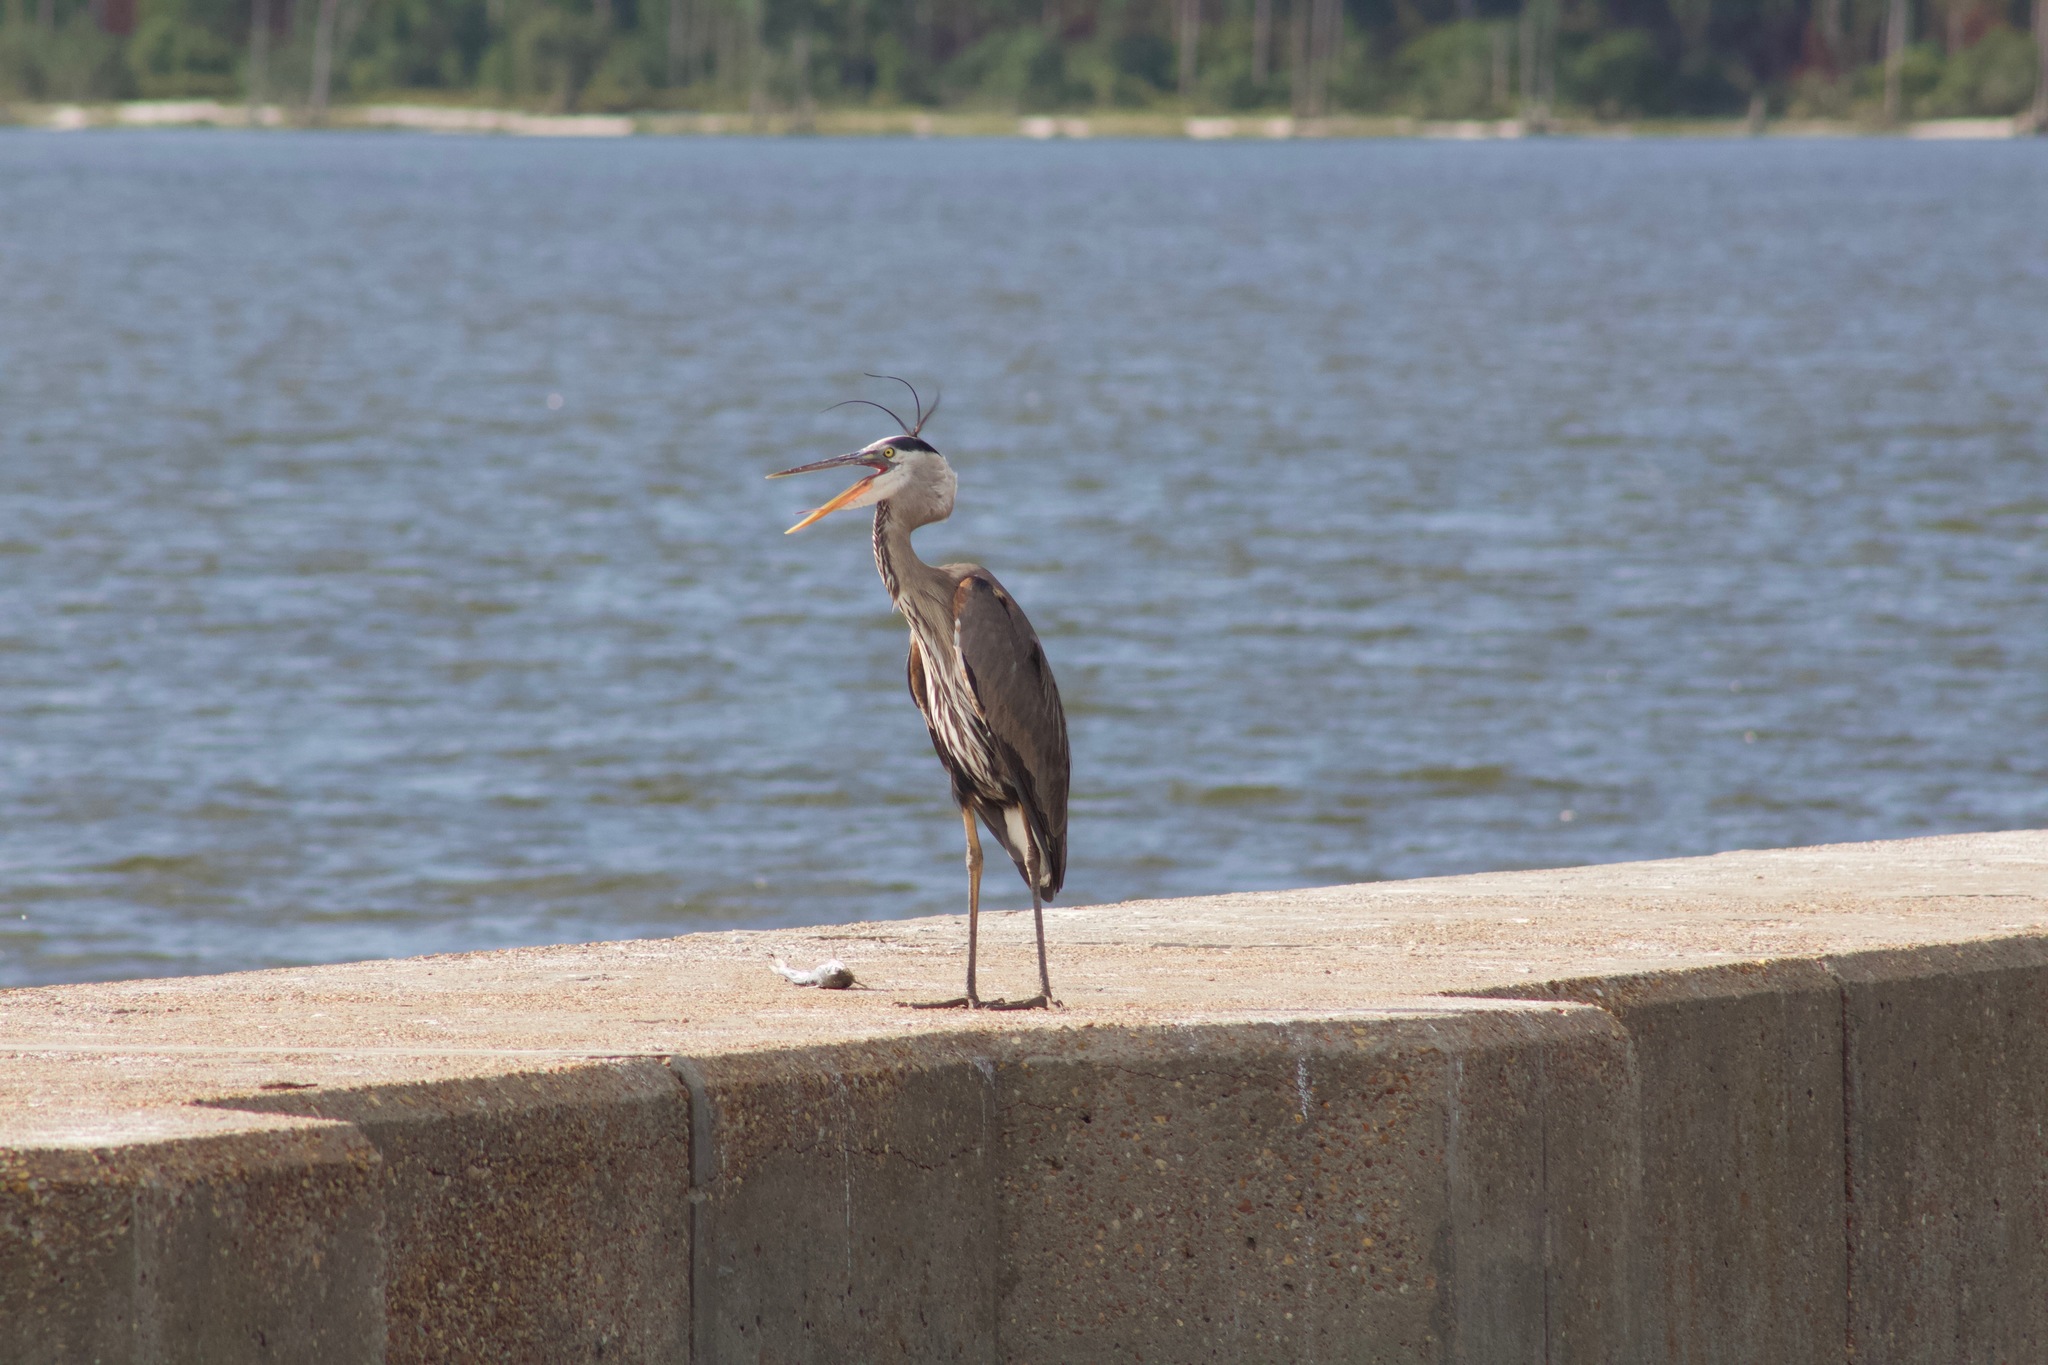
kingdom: Animalia
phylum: Chordata
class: Aves
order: Pelecaniformes
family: Ardeidae
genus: Ardea
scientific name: Ardea herodias
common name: Great blue heron
